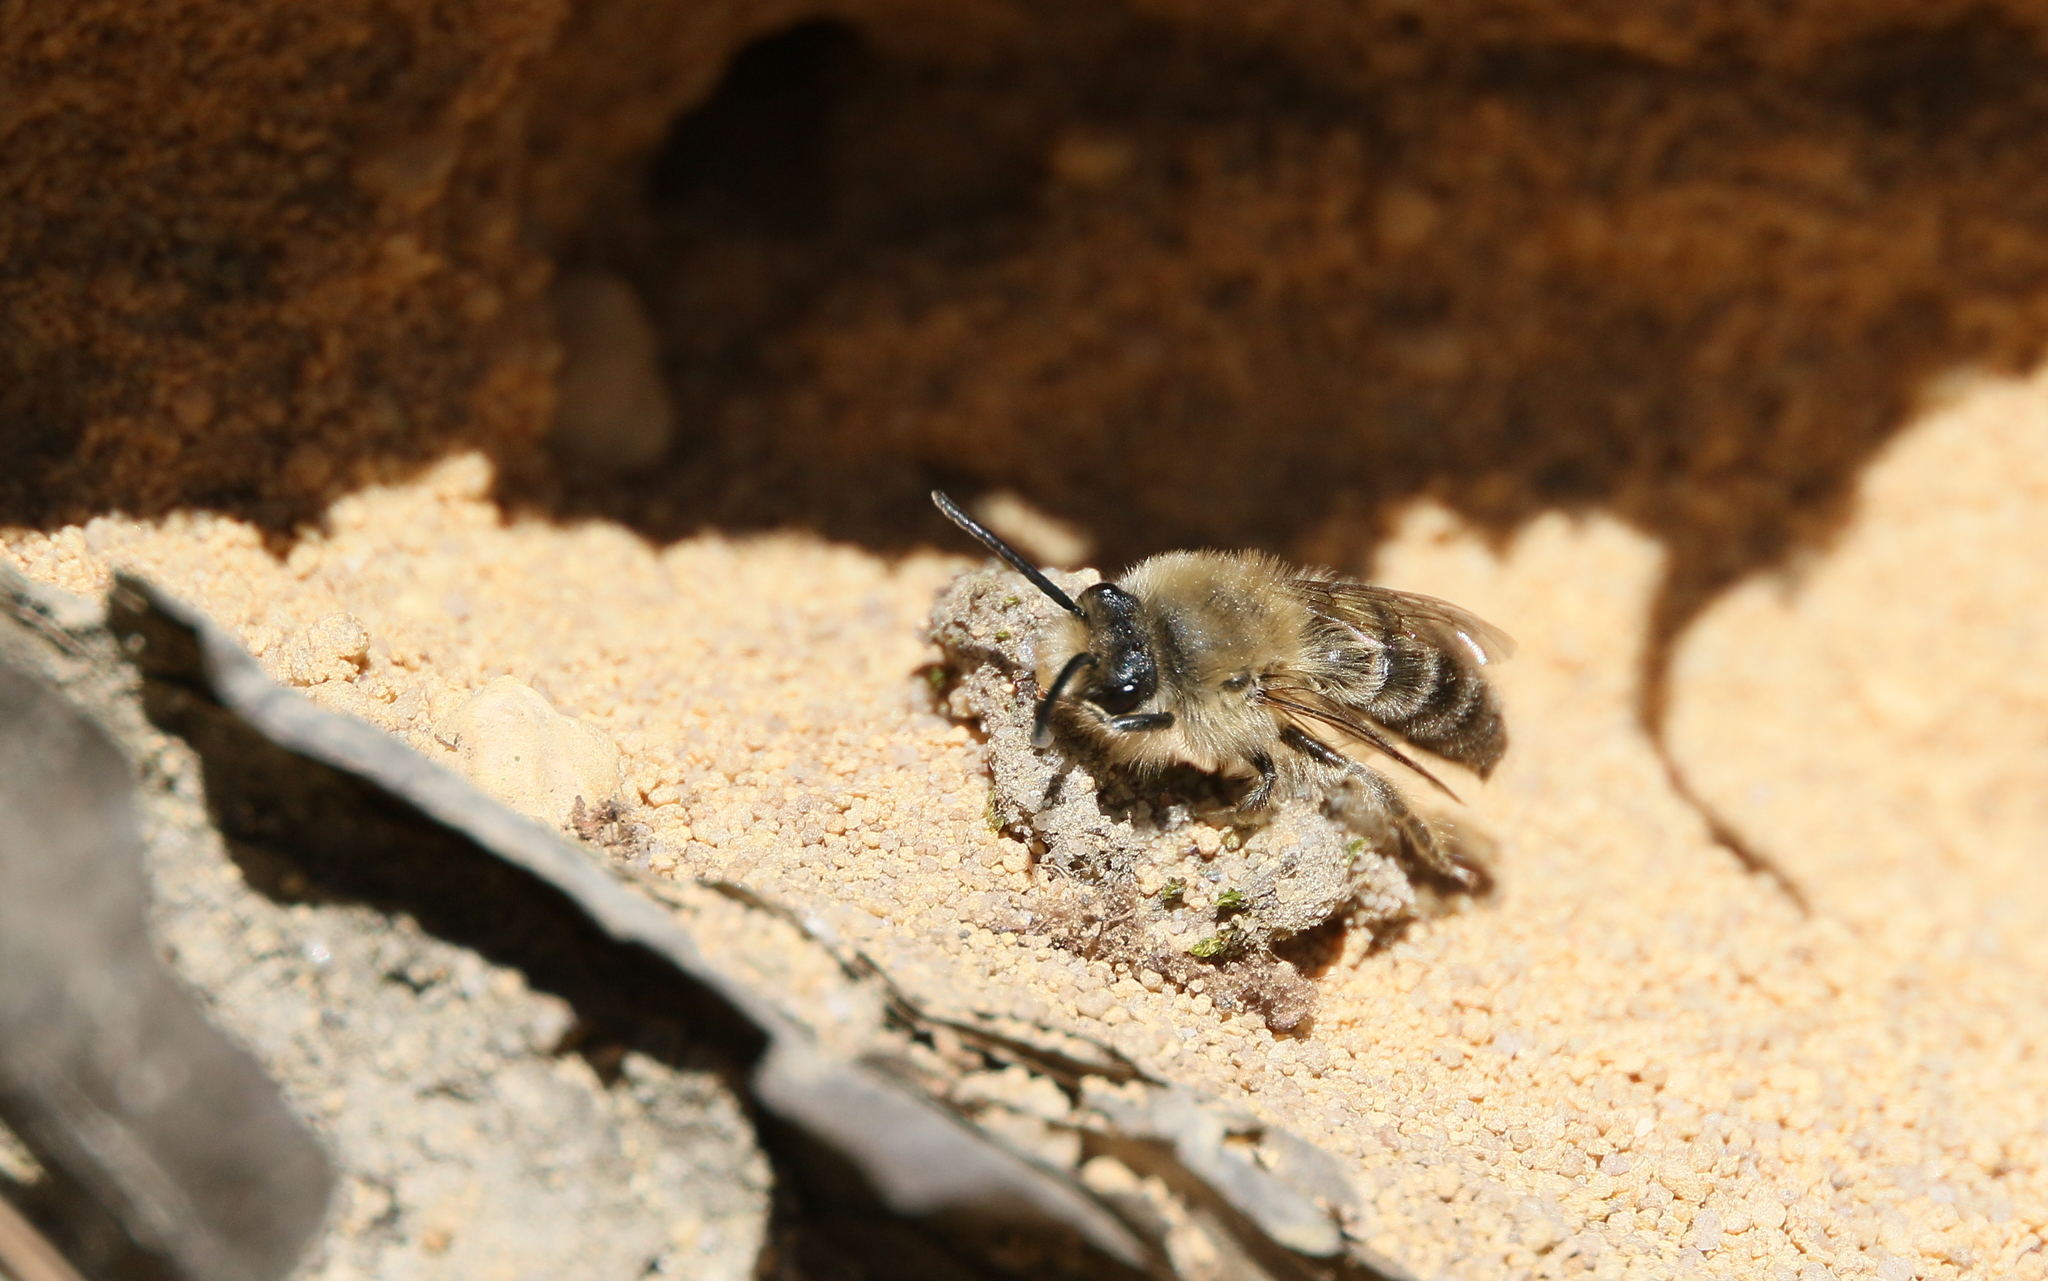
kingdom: Animalia
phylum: Arthropoda
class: Insecta
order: Hymenoptera
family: Colletidae
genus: Colletes
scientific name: Colletes cunicularius
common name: Early colletes
